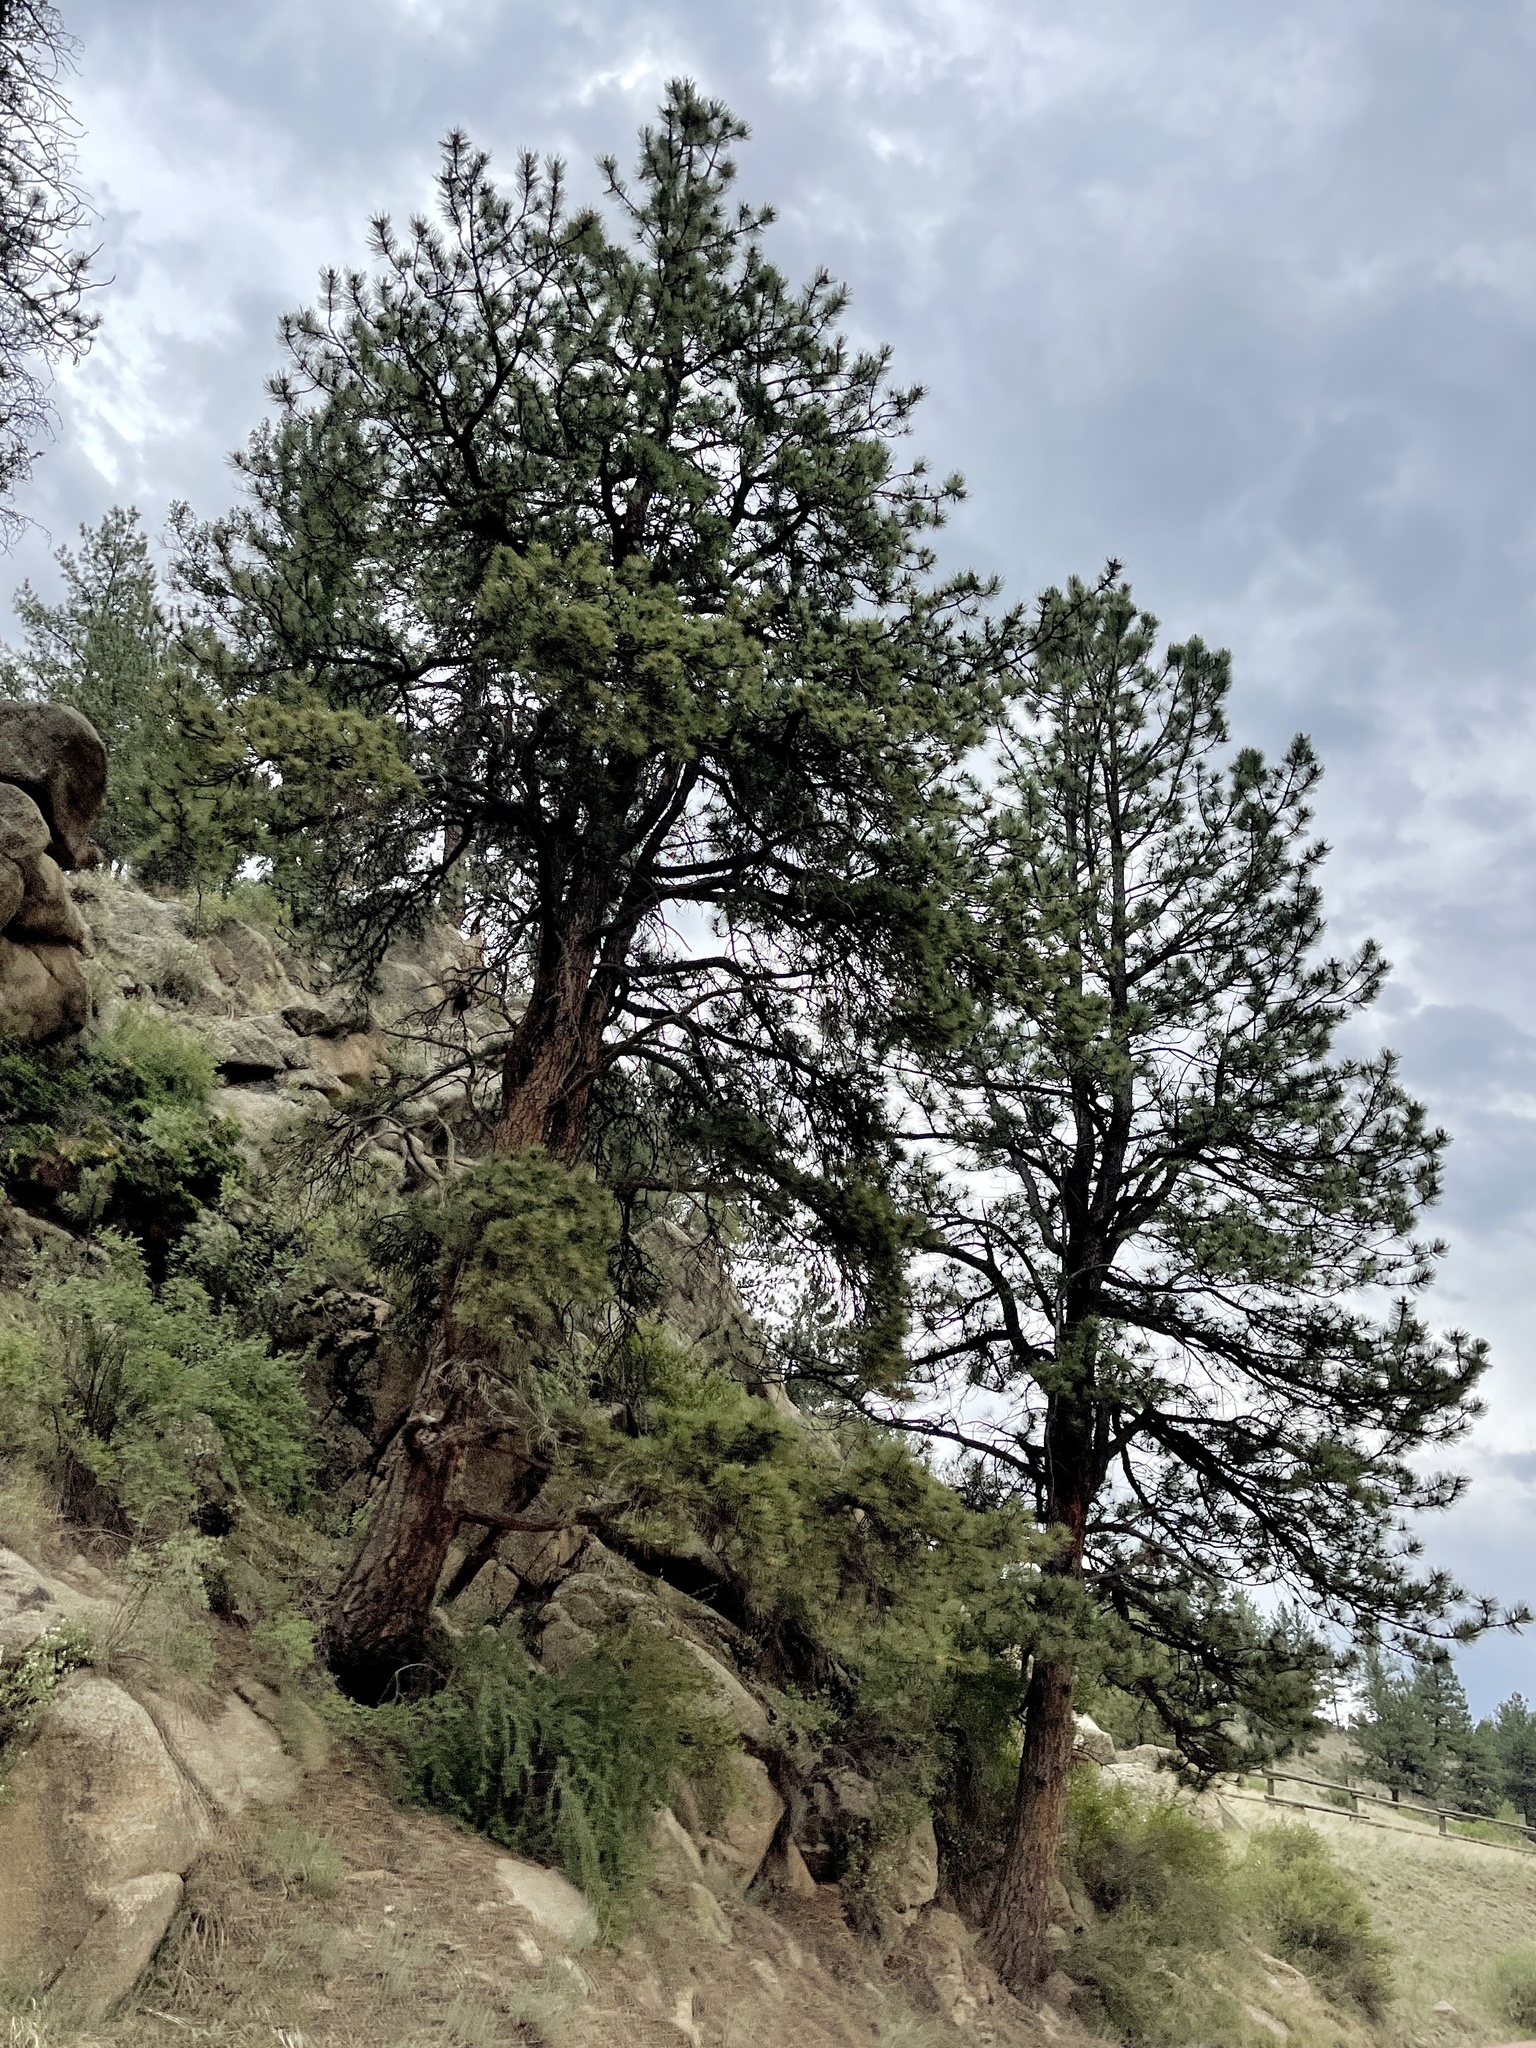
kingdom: Plantae
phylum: Tracheophyta
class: Pinopsida
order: Pinales
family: Pinaceae
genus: Pinus
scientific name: Pinus ponderosa
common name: Western yellow-pine
